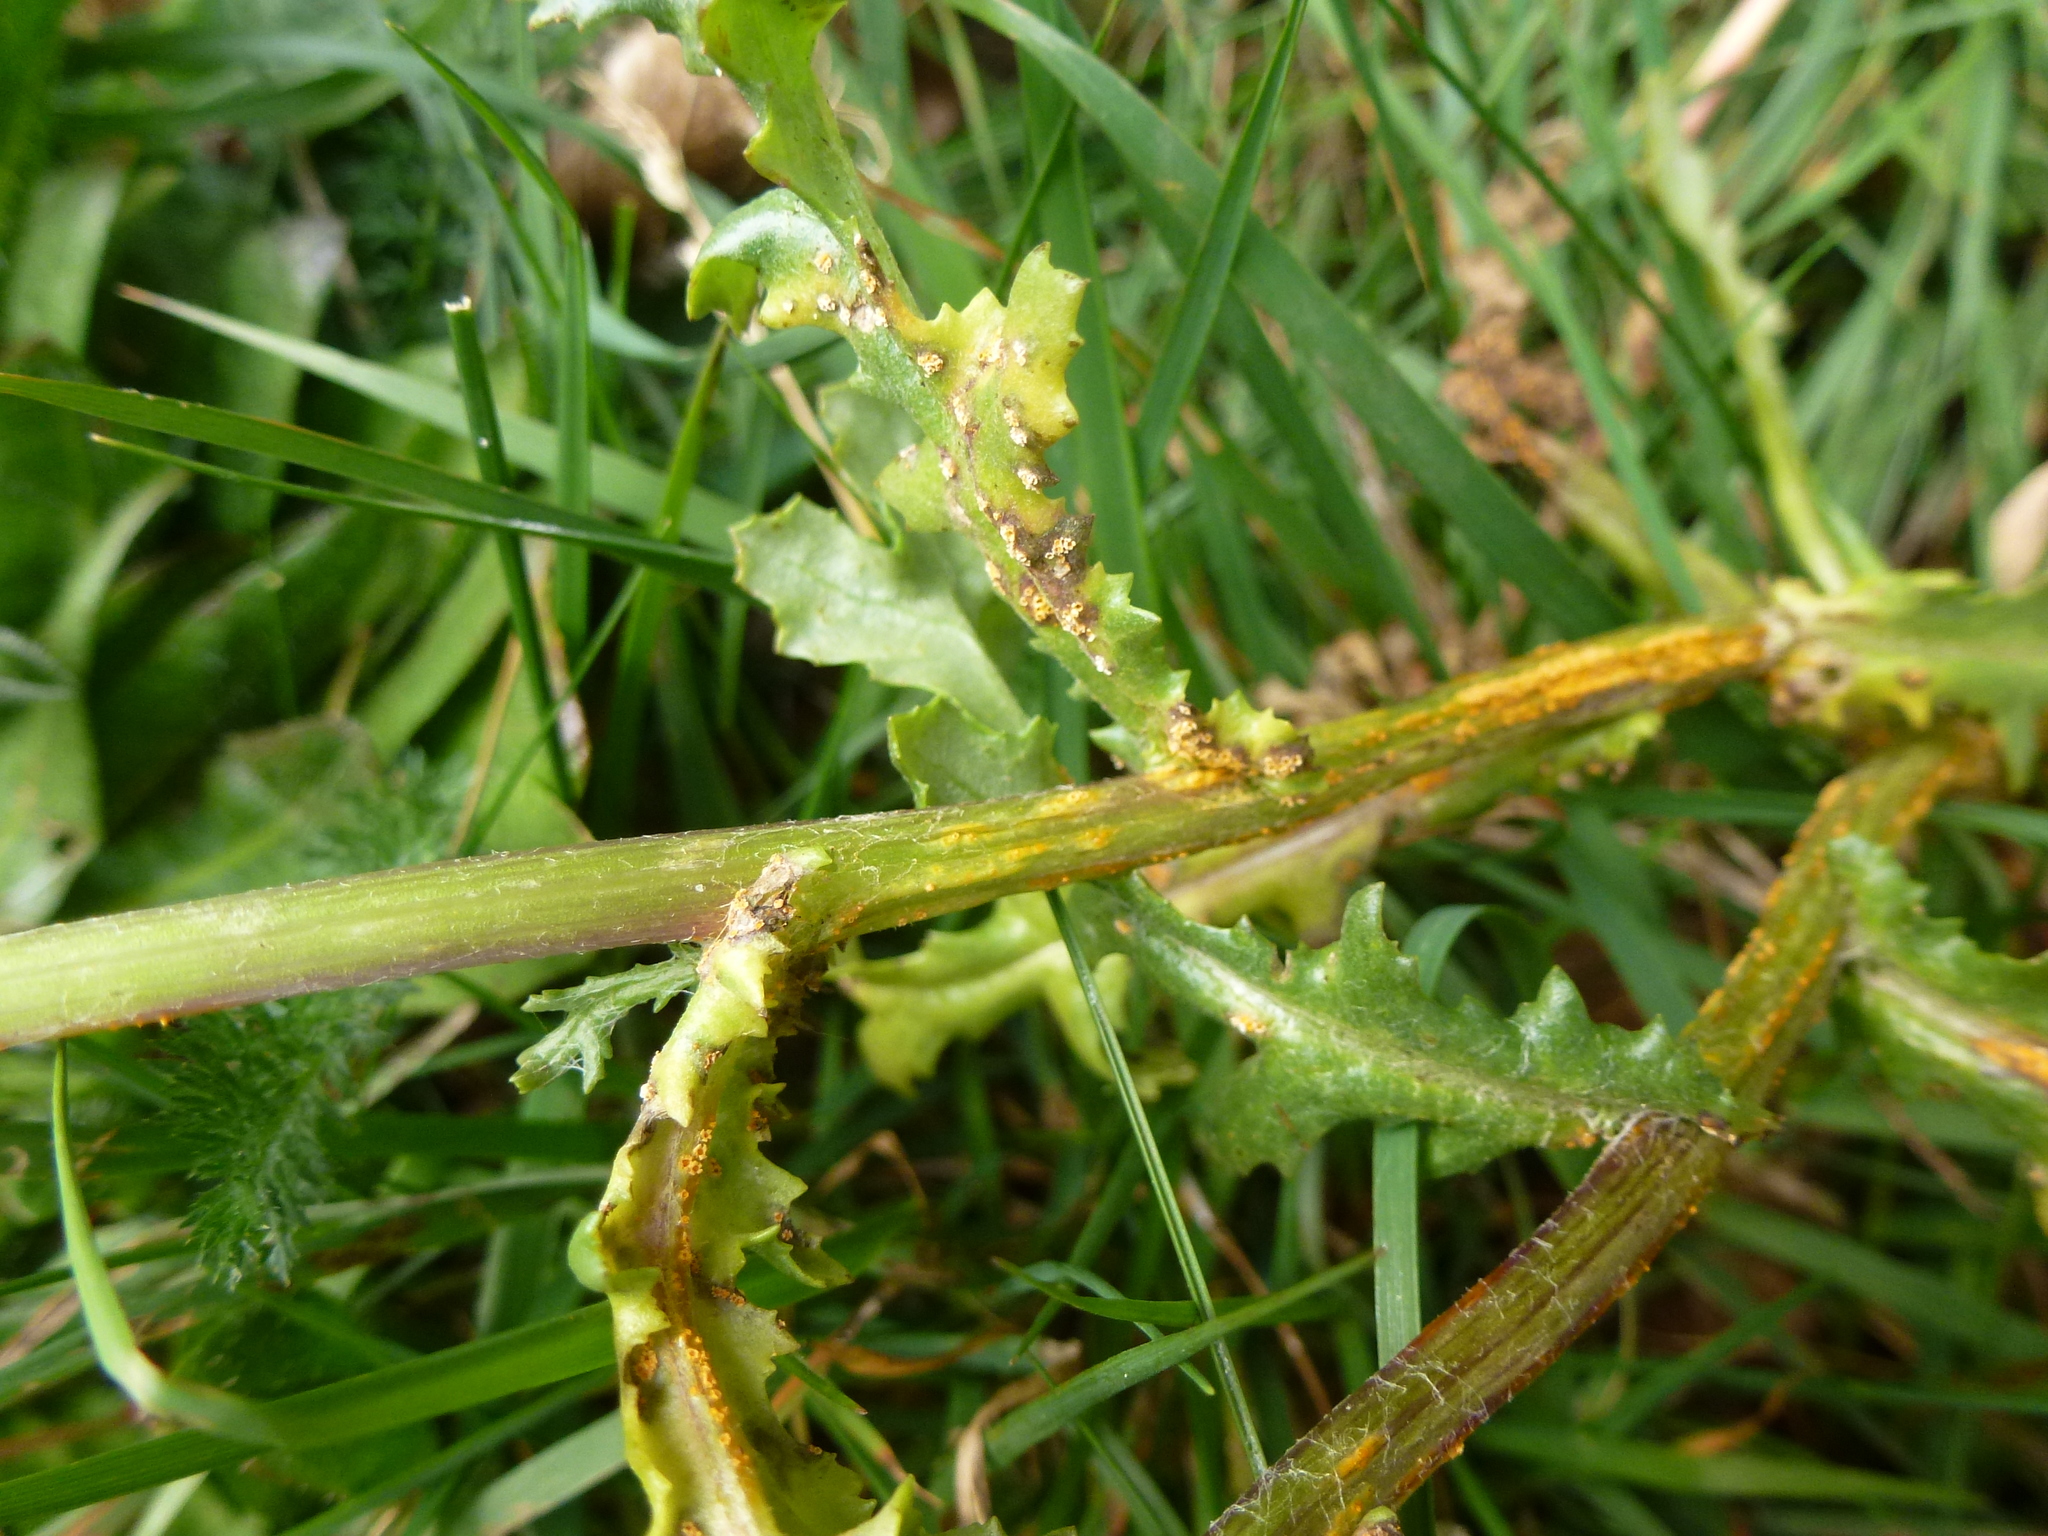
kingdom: Fungi
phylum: Basidiomycota
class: Pucciniomycetes
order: Pucciniales
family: Pucciniaceae
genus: Puccinia
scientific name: Puccinia lagenophorae
